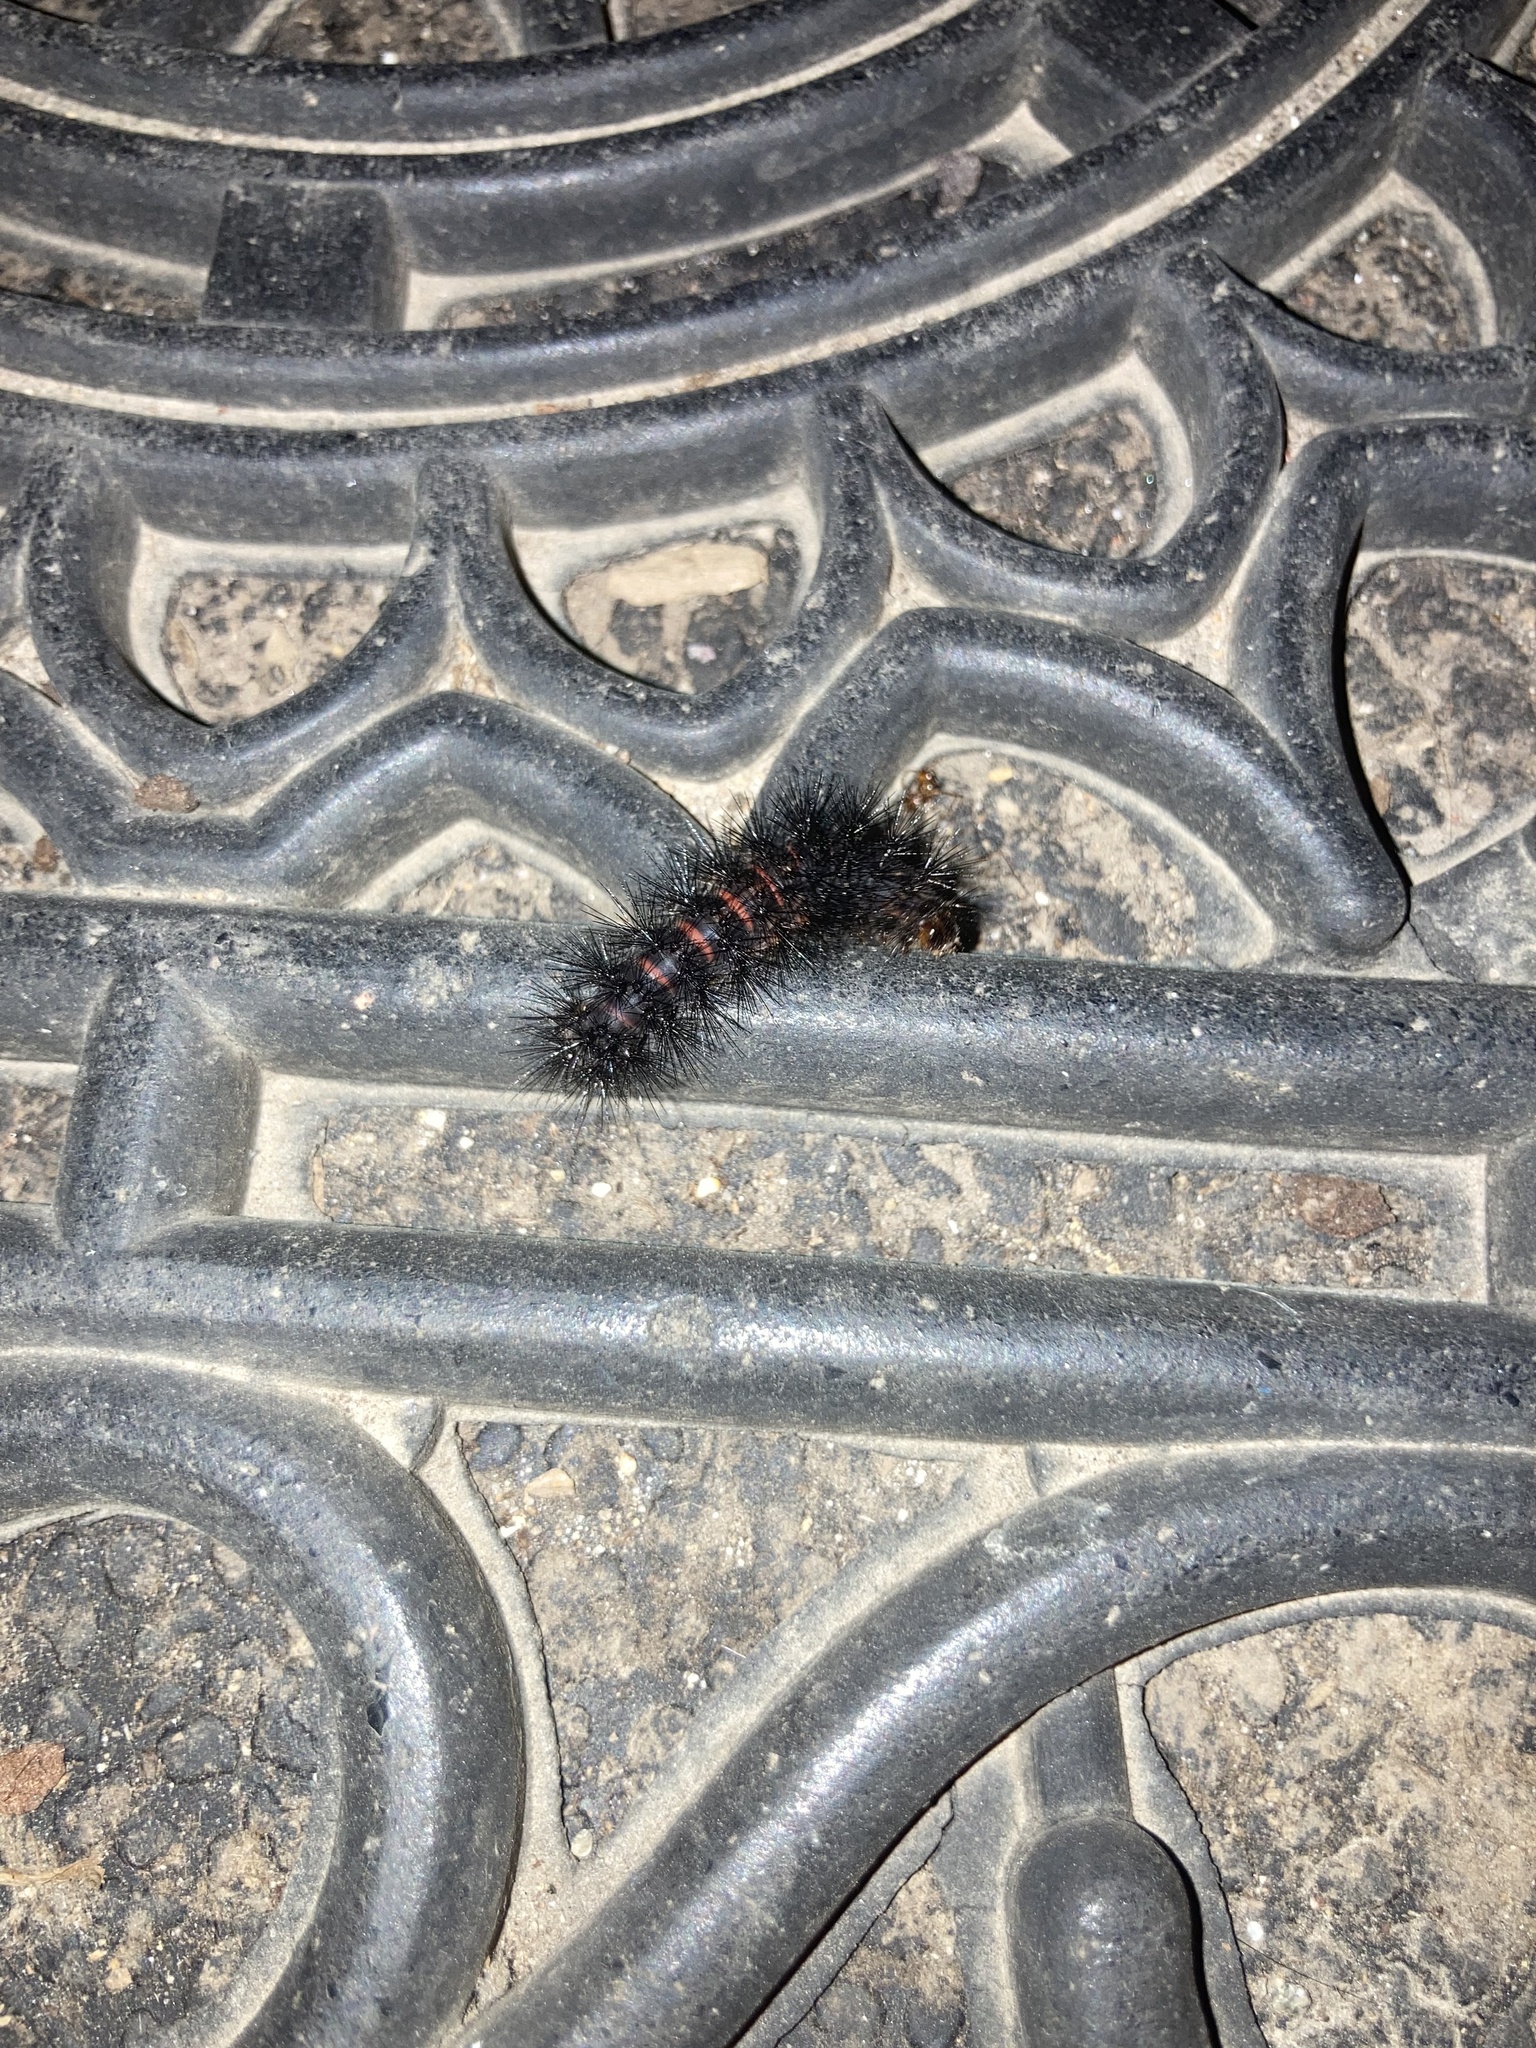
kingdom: Animalia
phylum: Arthropoda
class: Insecta
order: Lepidoptera
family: Erebidae
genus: Hypercompe
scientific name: Hypercompe scribonia
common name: Giant leopard moth
